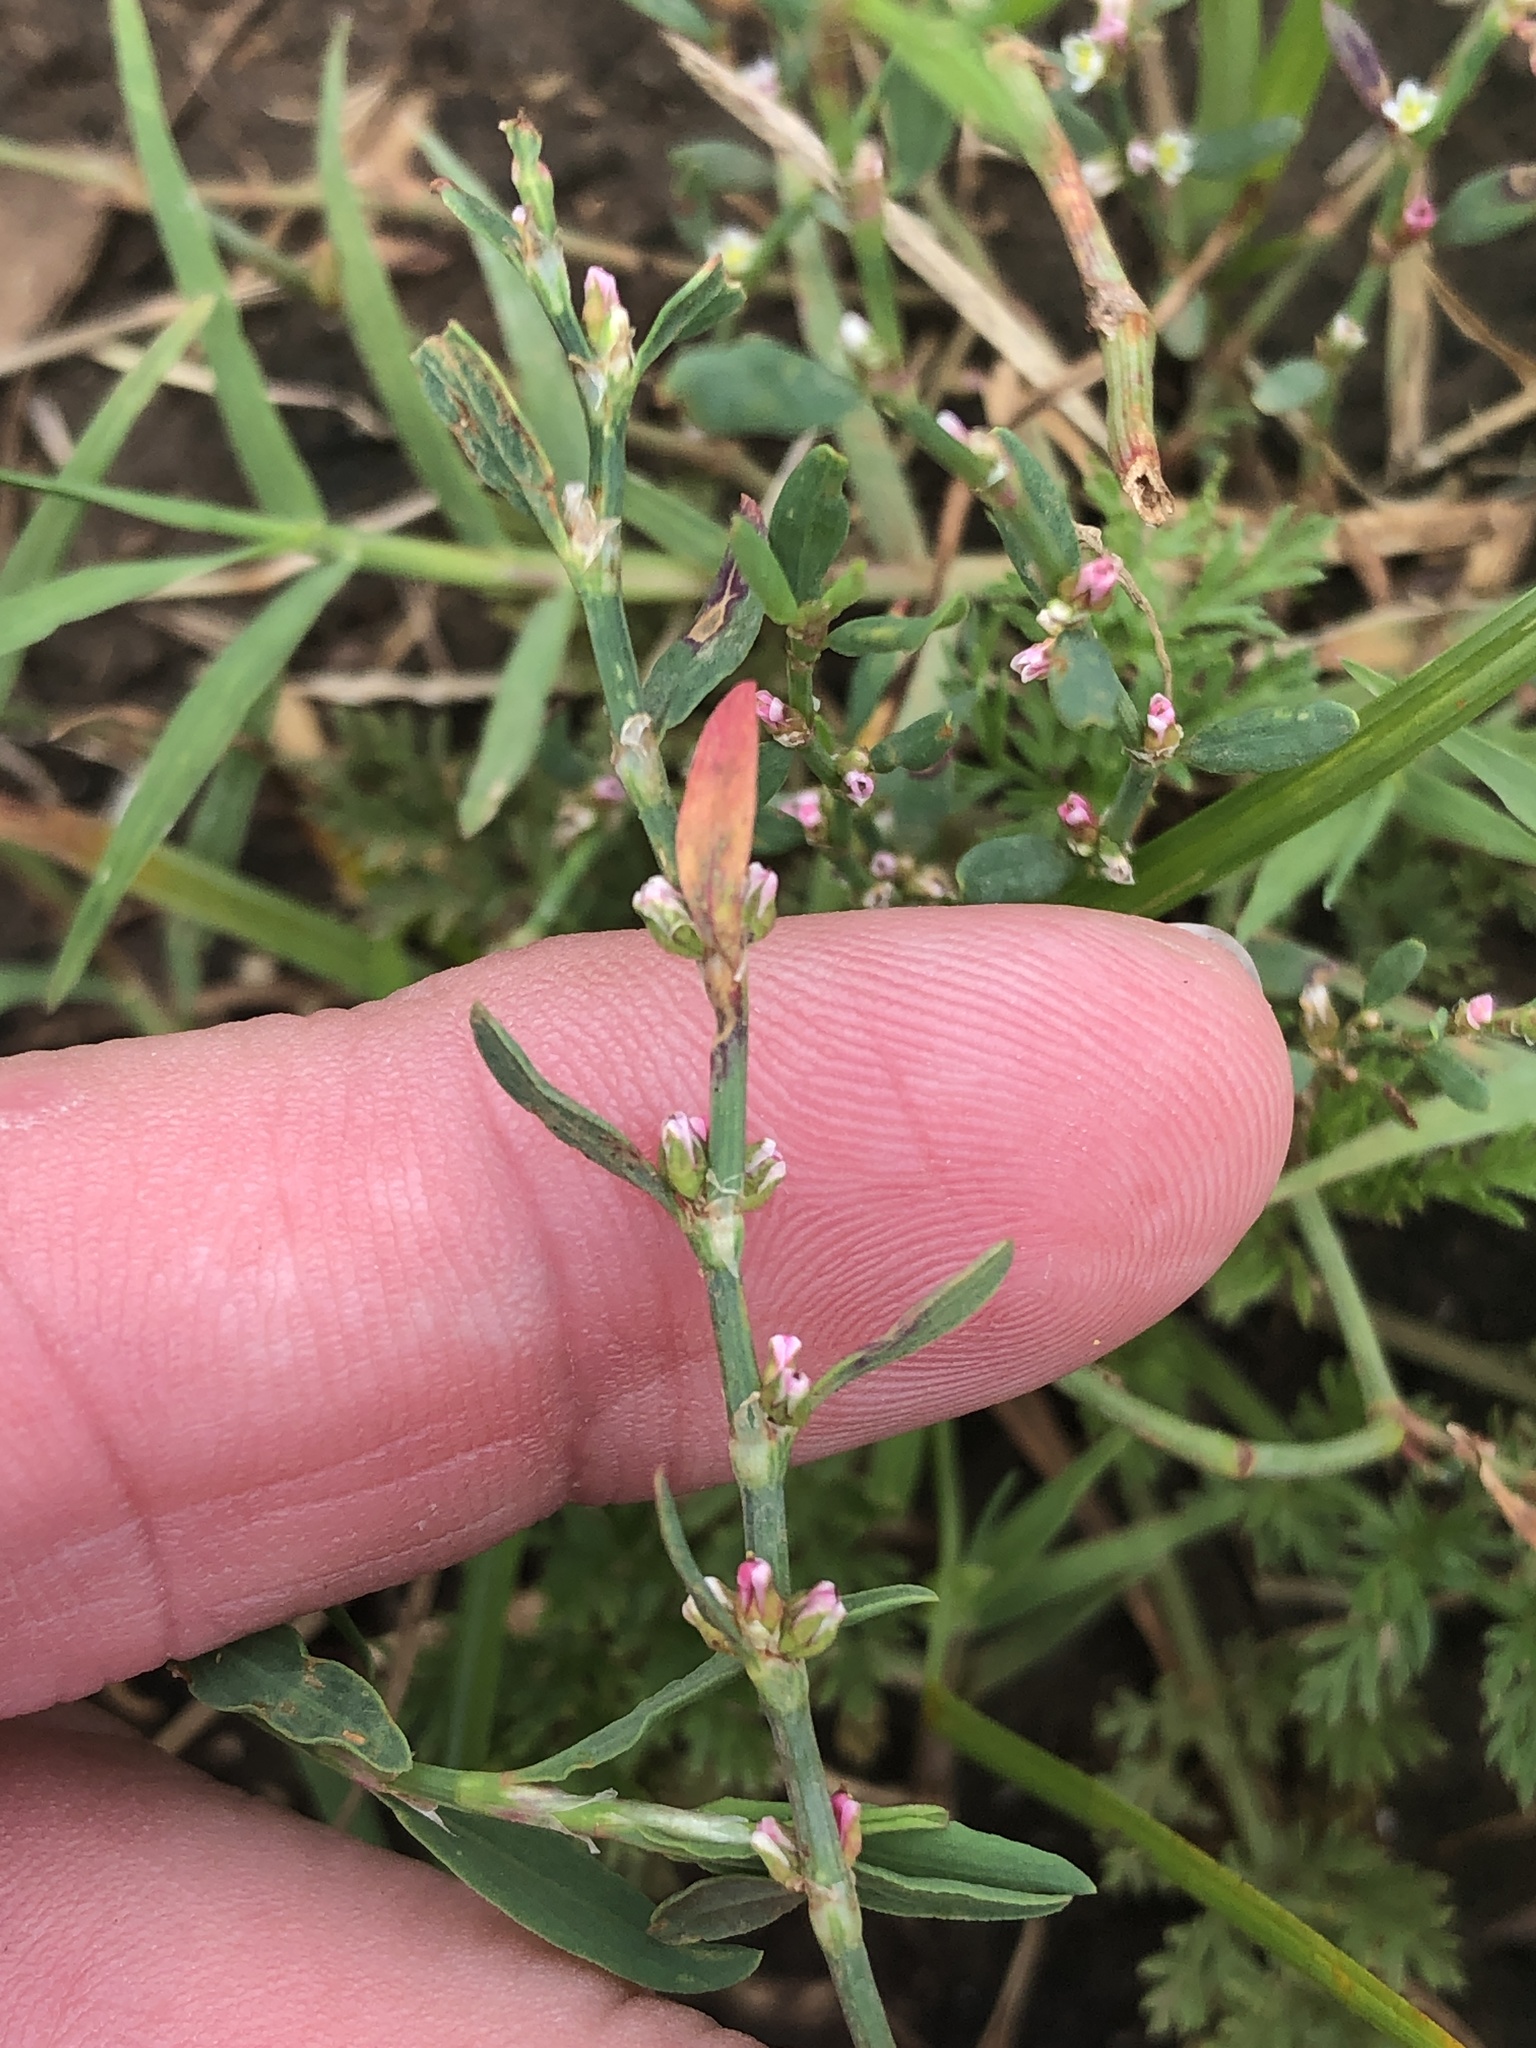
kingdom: Plantae
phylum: Tracheophyta
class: Magnoliopsida
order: Caryophyllales
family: Polygonaceae
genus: Polygonum
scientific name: Polygonum aviculare
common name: Prostrate knotweed
